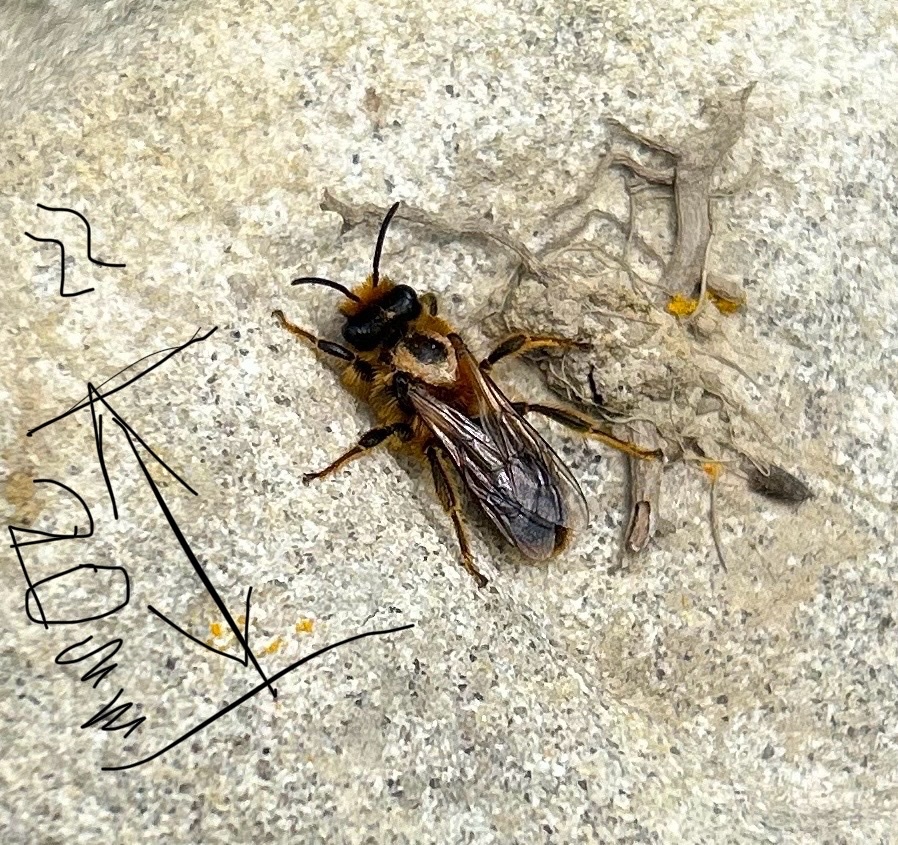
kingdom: Animalia
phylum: Arthropoda
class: Insecta
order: Hymenoptera
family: Colletidae
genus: Leioproctus
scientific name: Leioproctus fulvescens
